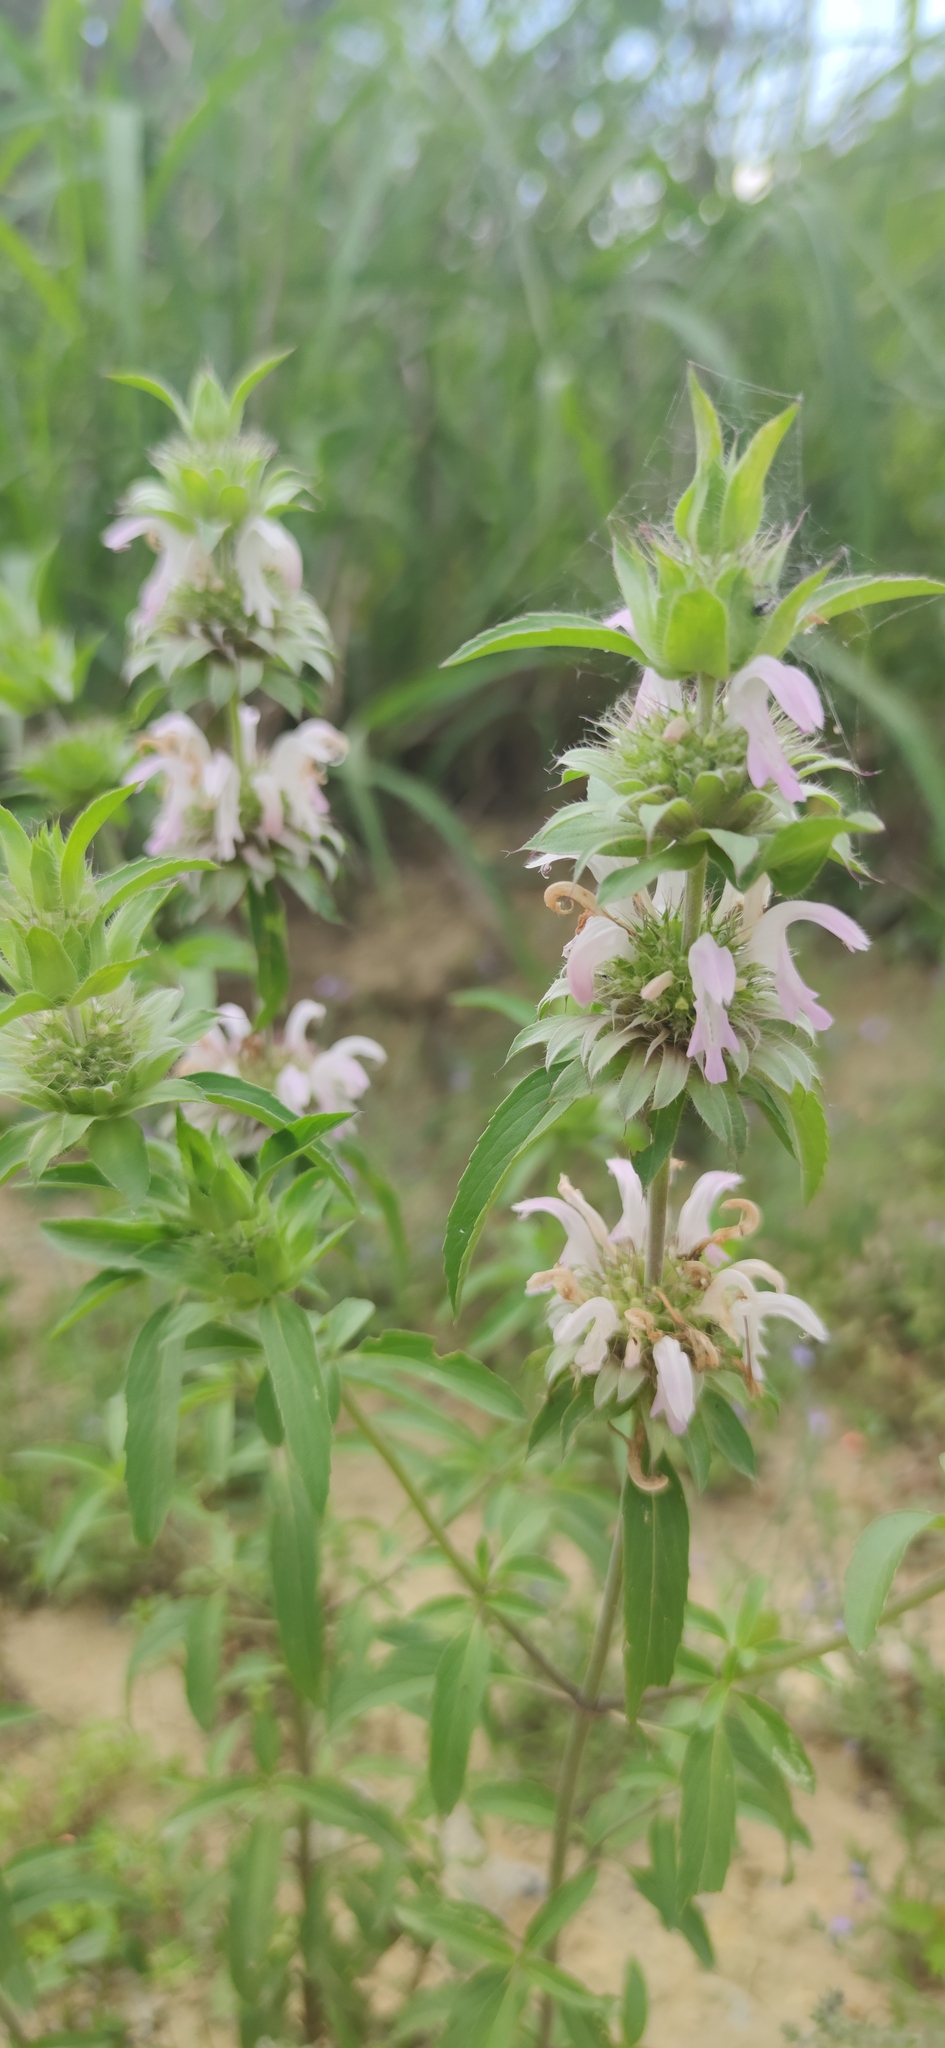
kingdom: Plantae
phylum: Tracheophyta
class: Magnoliopsida
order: Lamiales
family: Lamiaceae
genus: Monarda
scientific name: Monarda citriodora
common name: Lemon beebalm
